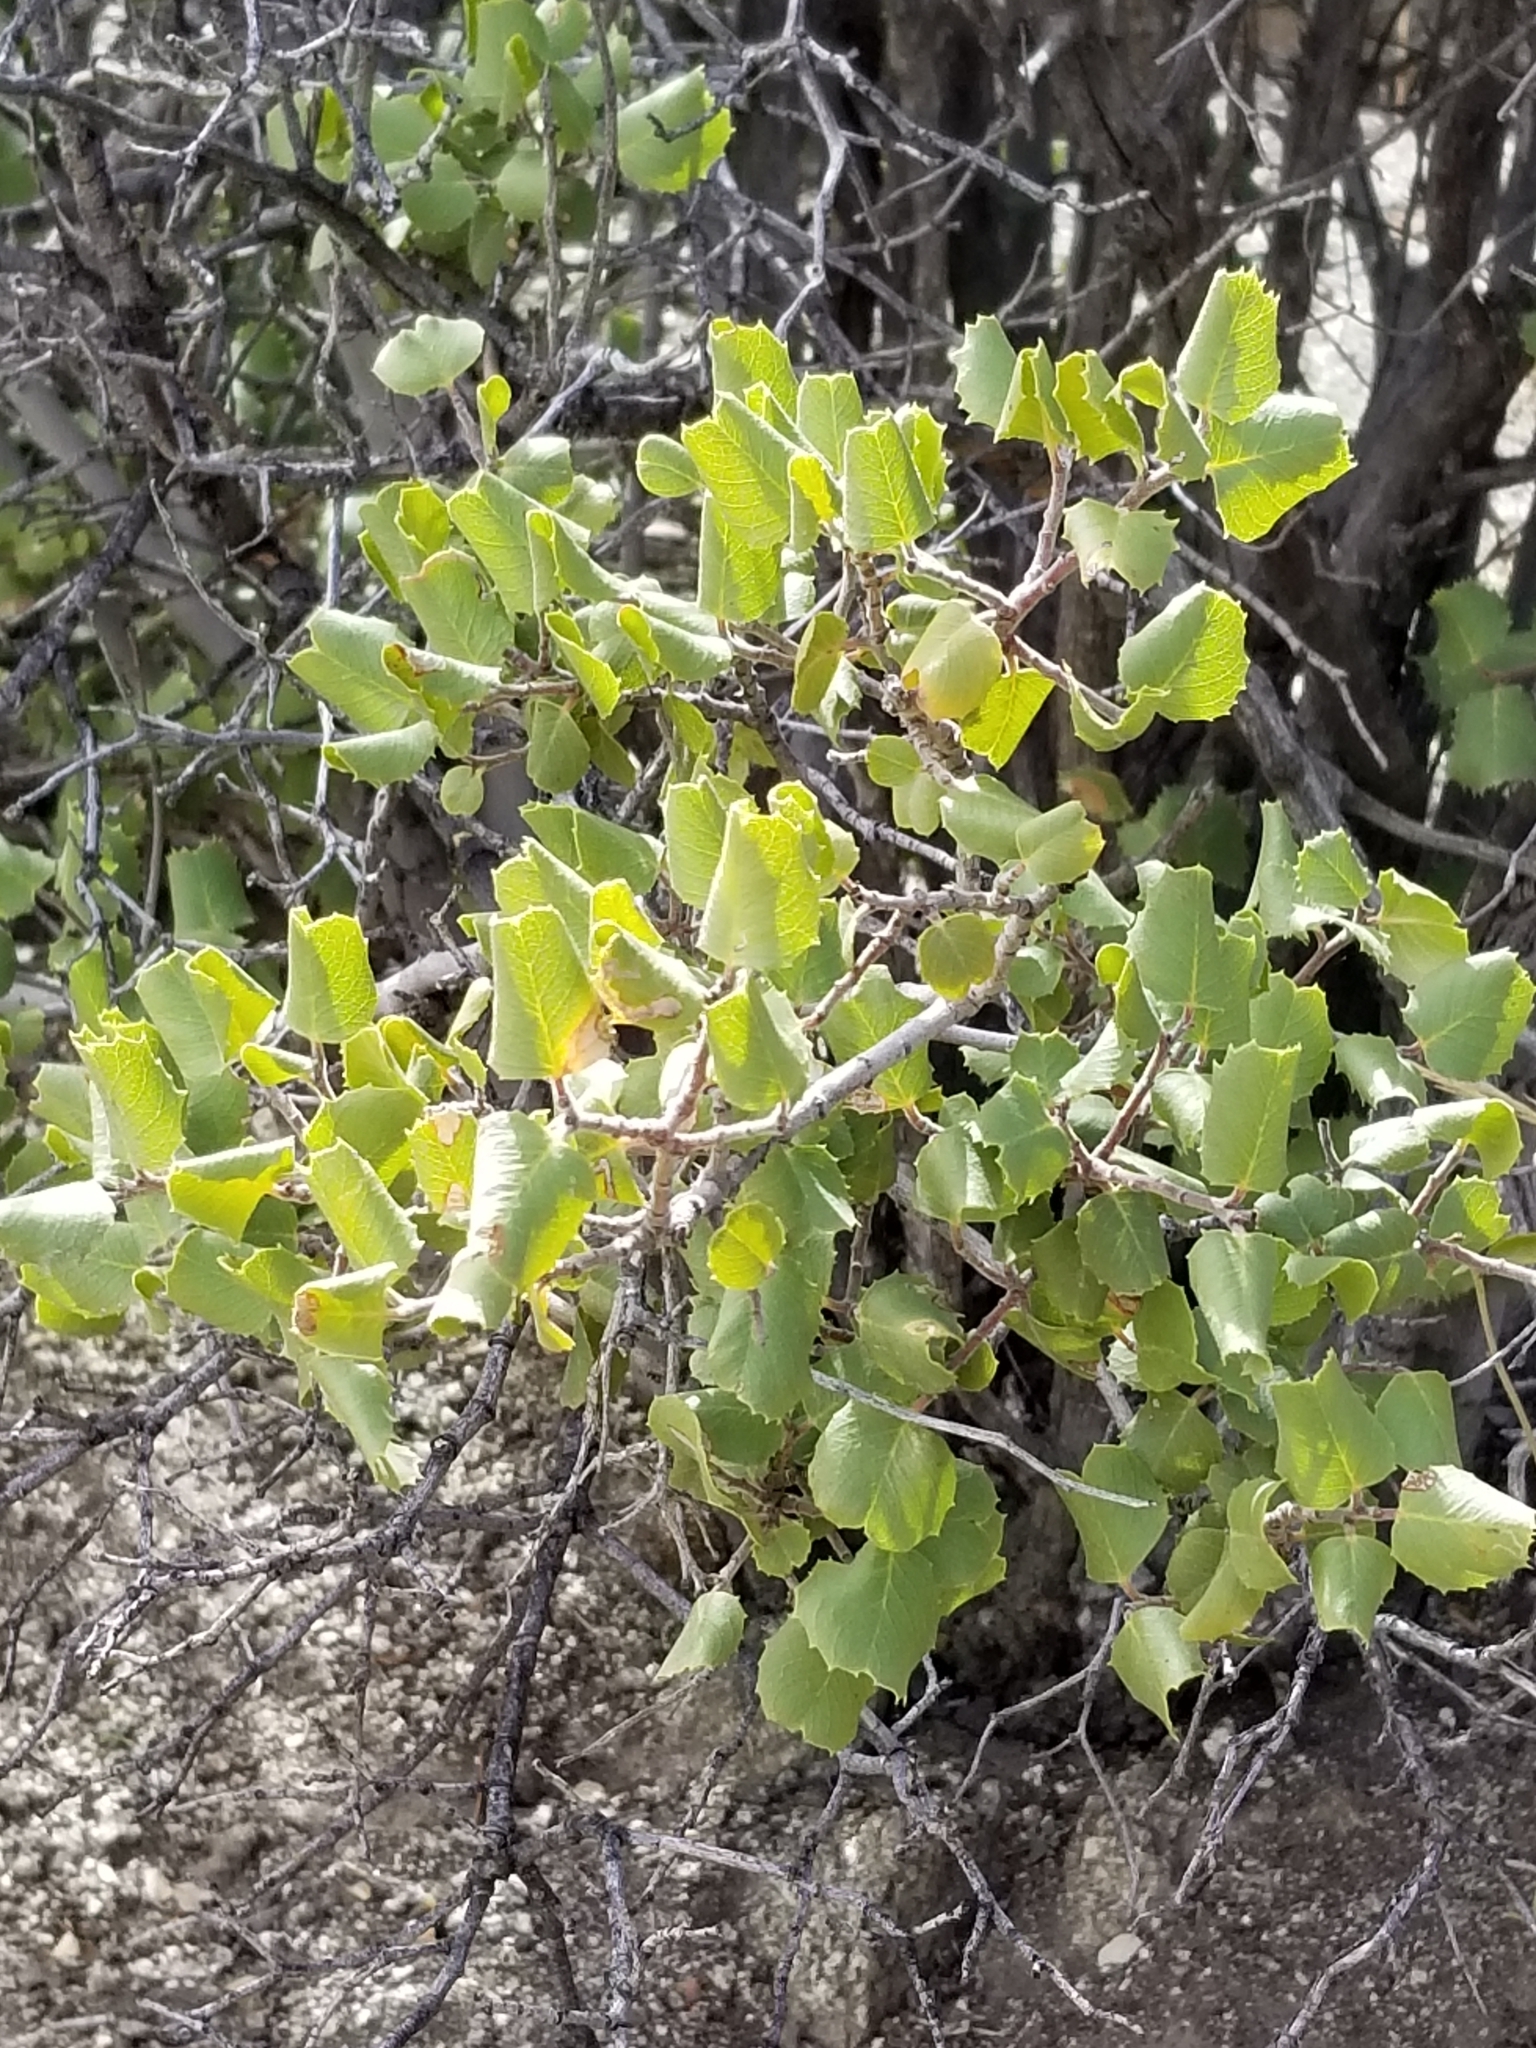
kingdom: Plantae
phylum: Tracheophyta
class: Magnoliopsida
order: Rosales
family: Rhamnaceae
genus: Endotropis
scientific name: Endotropis crocea
